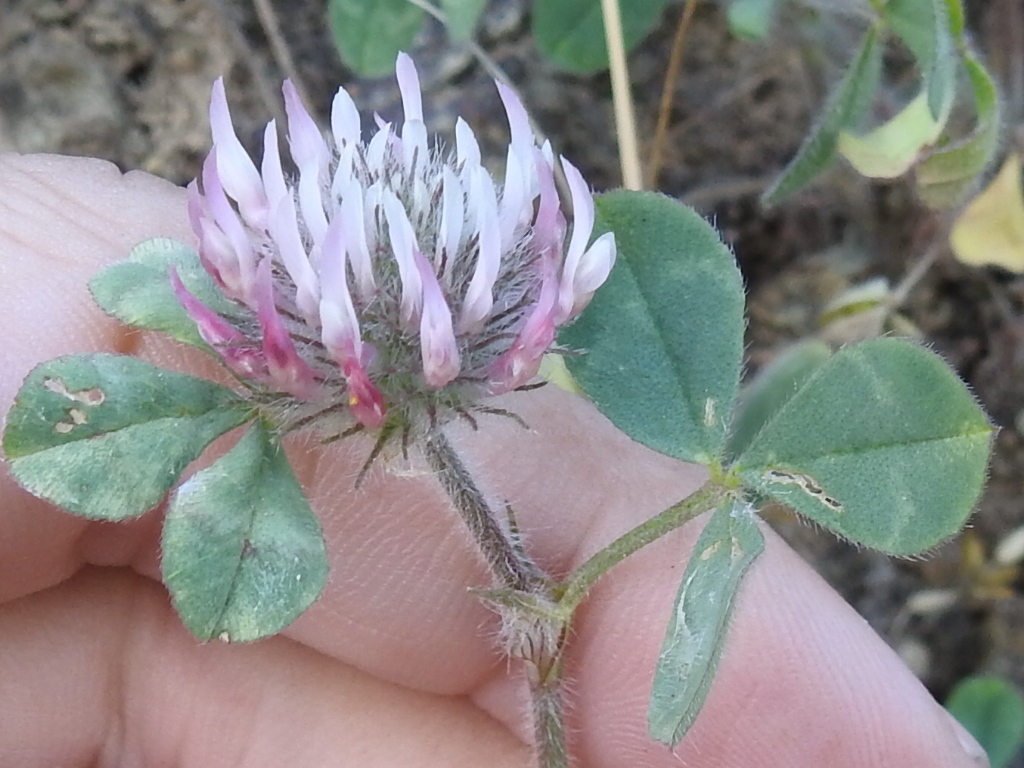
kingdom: Plantae
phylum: Tracheophyta
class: Magnoliopsida
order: Fabales
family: Fabaceae
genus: Trifolium
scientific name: Trifolium hirtum
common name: Rose clover
